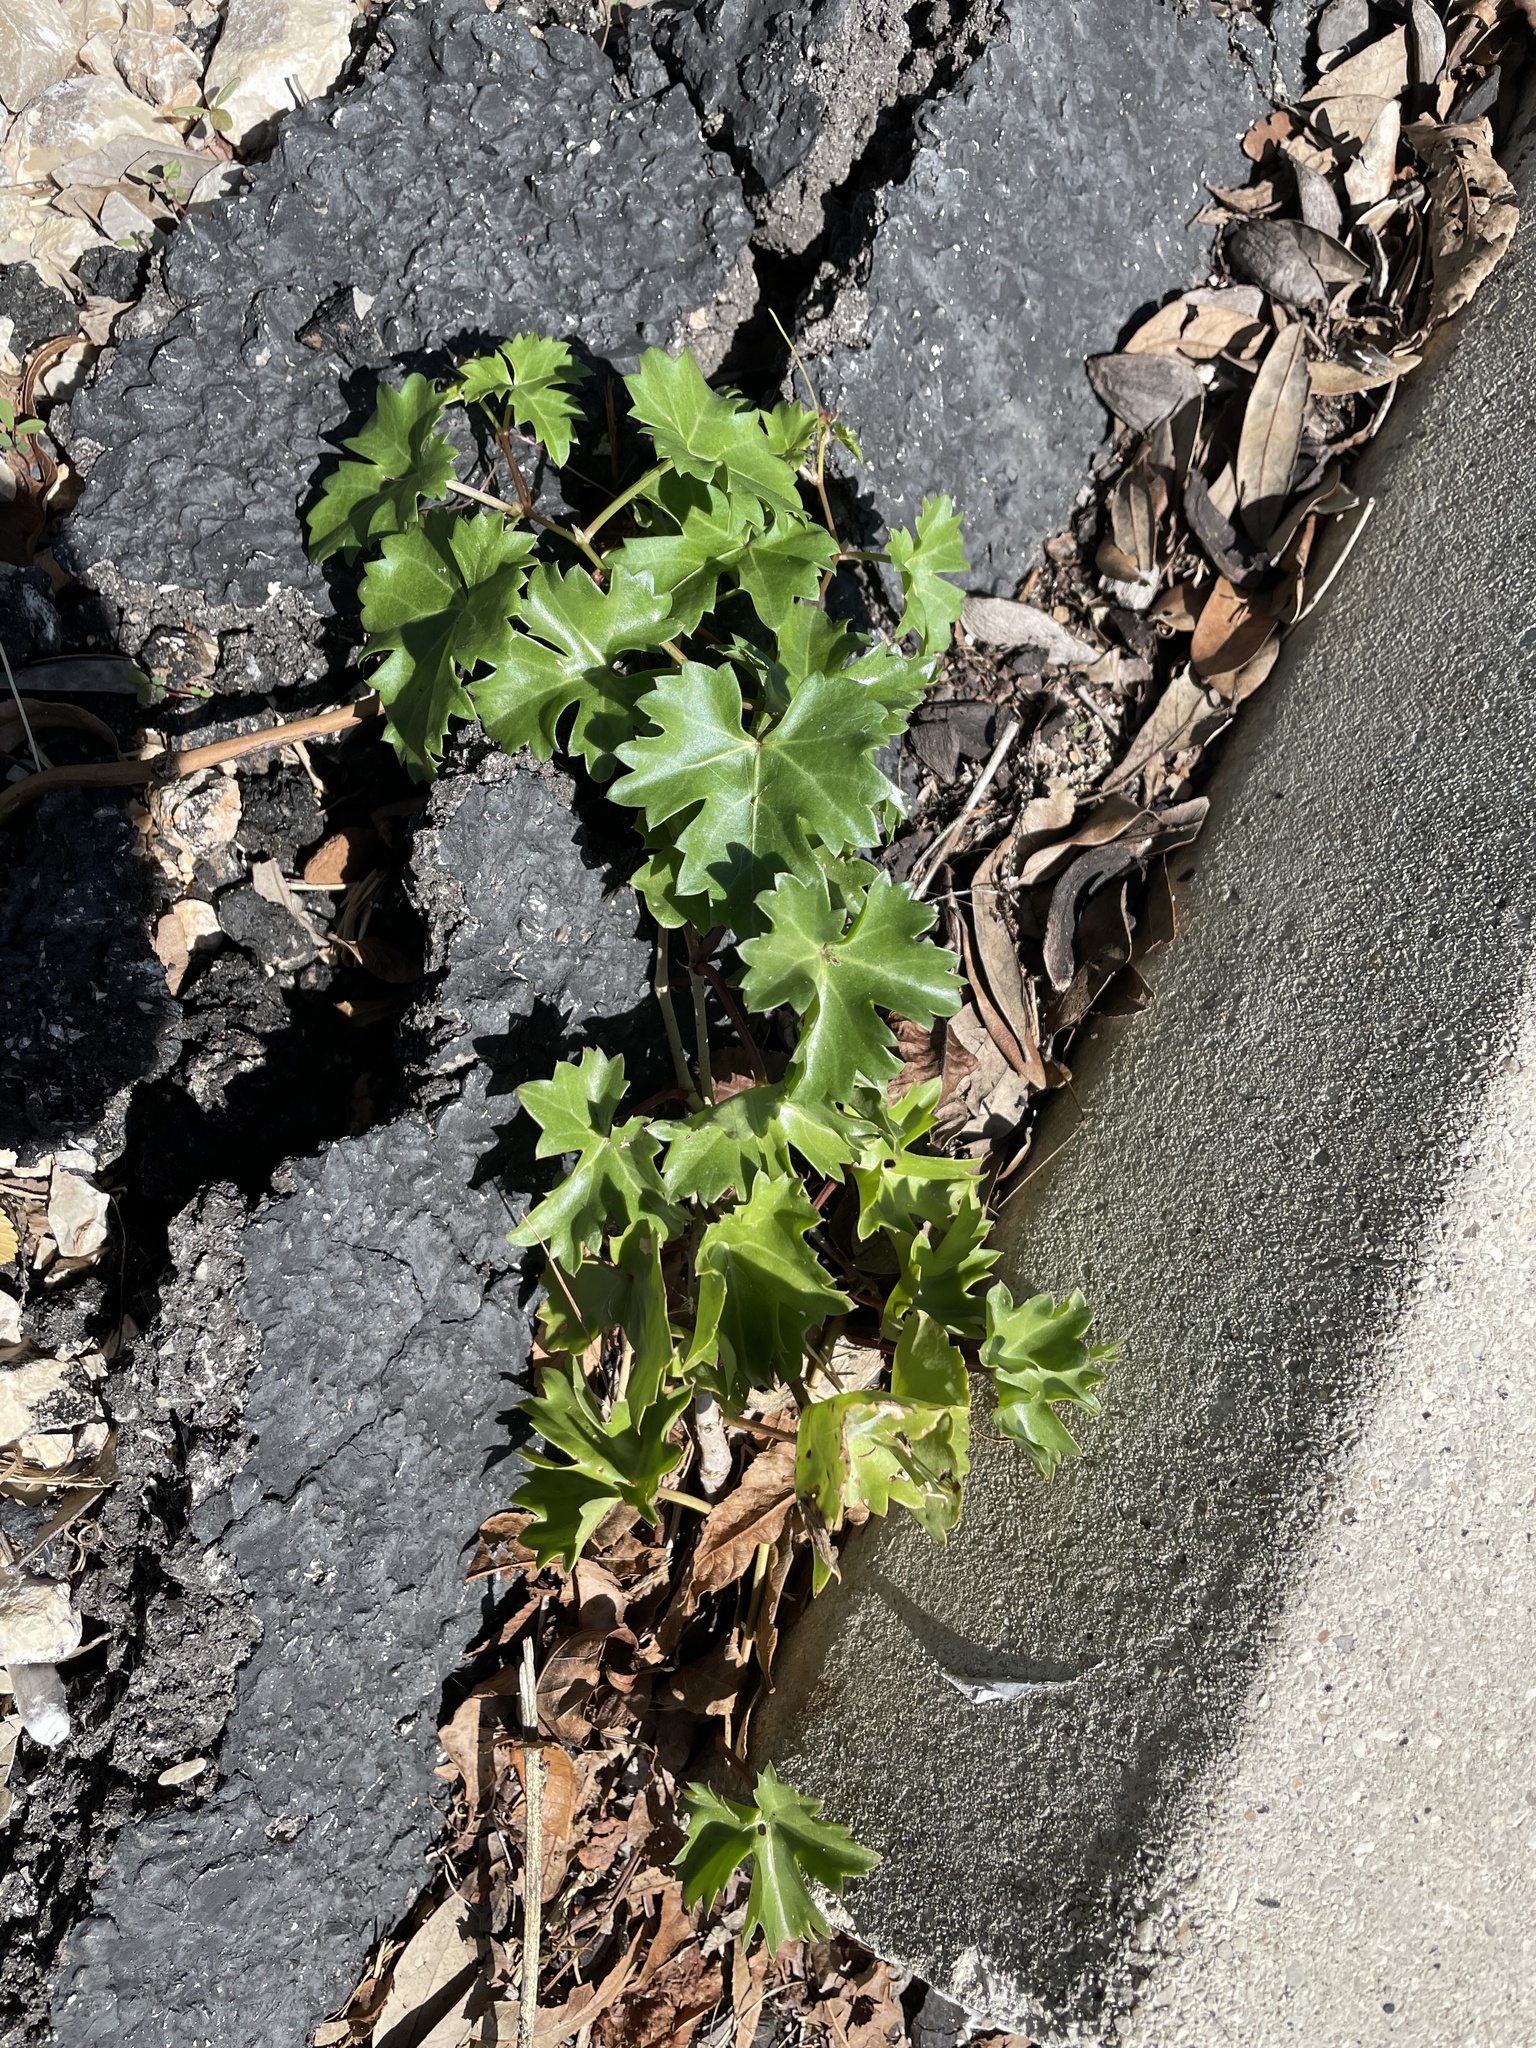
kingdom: Plantae
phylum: Tracheophyta
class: Magnoliopsida
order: Vitales
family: Vitaceae
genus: Cissus
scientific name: Cissus trifoliata
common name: Vine-sorrel
